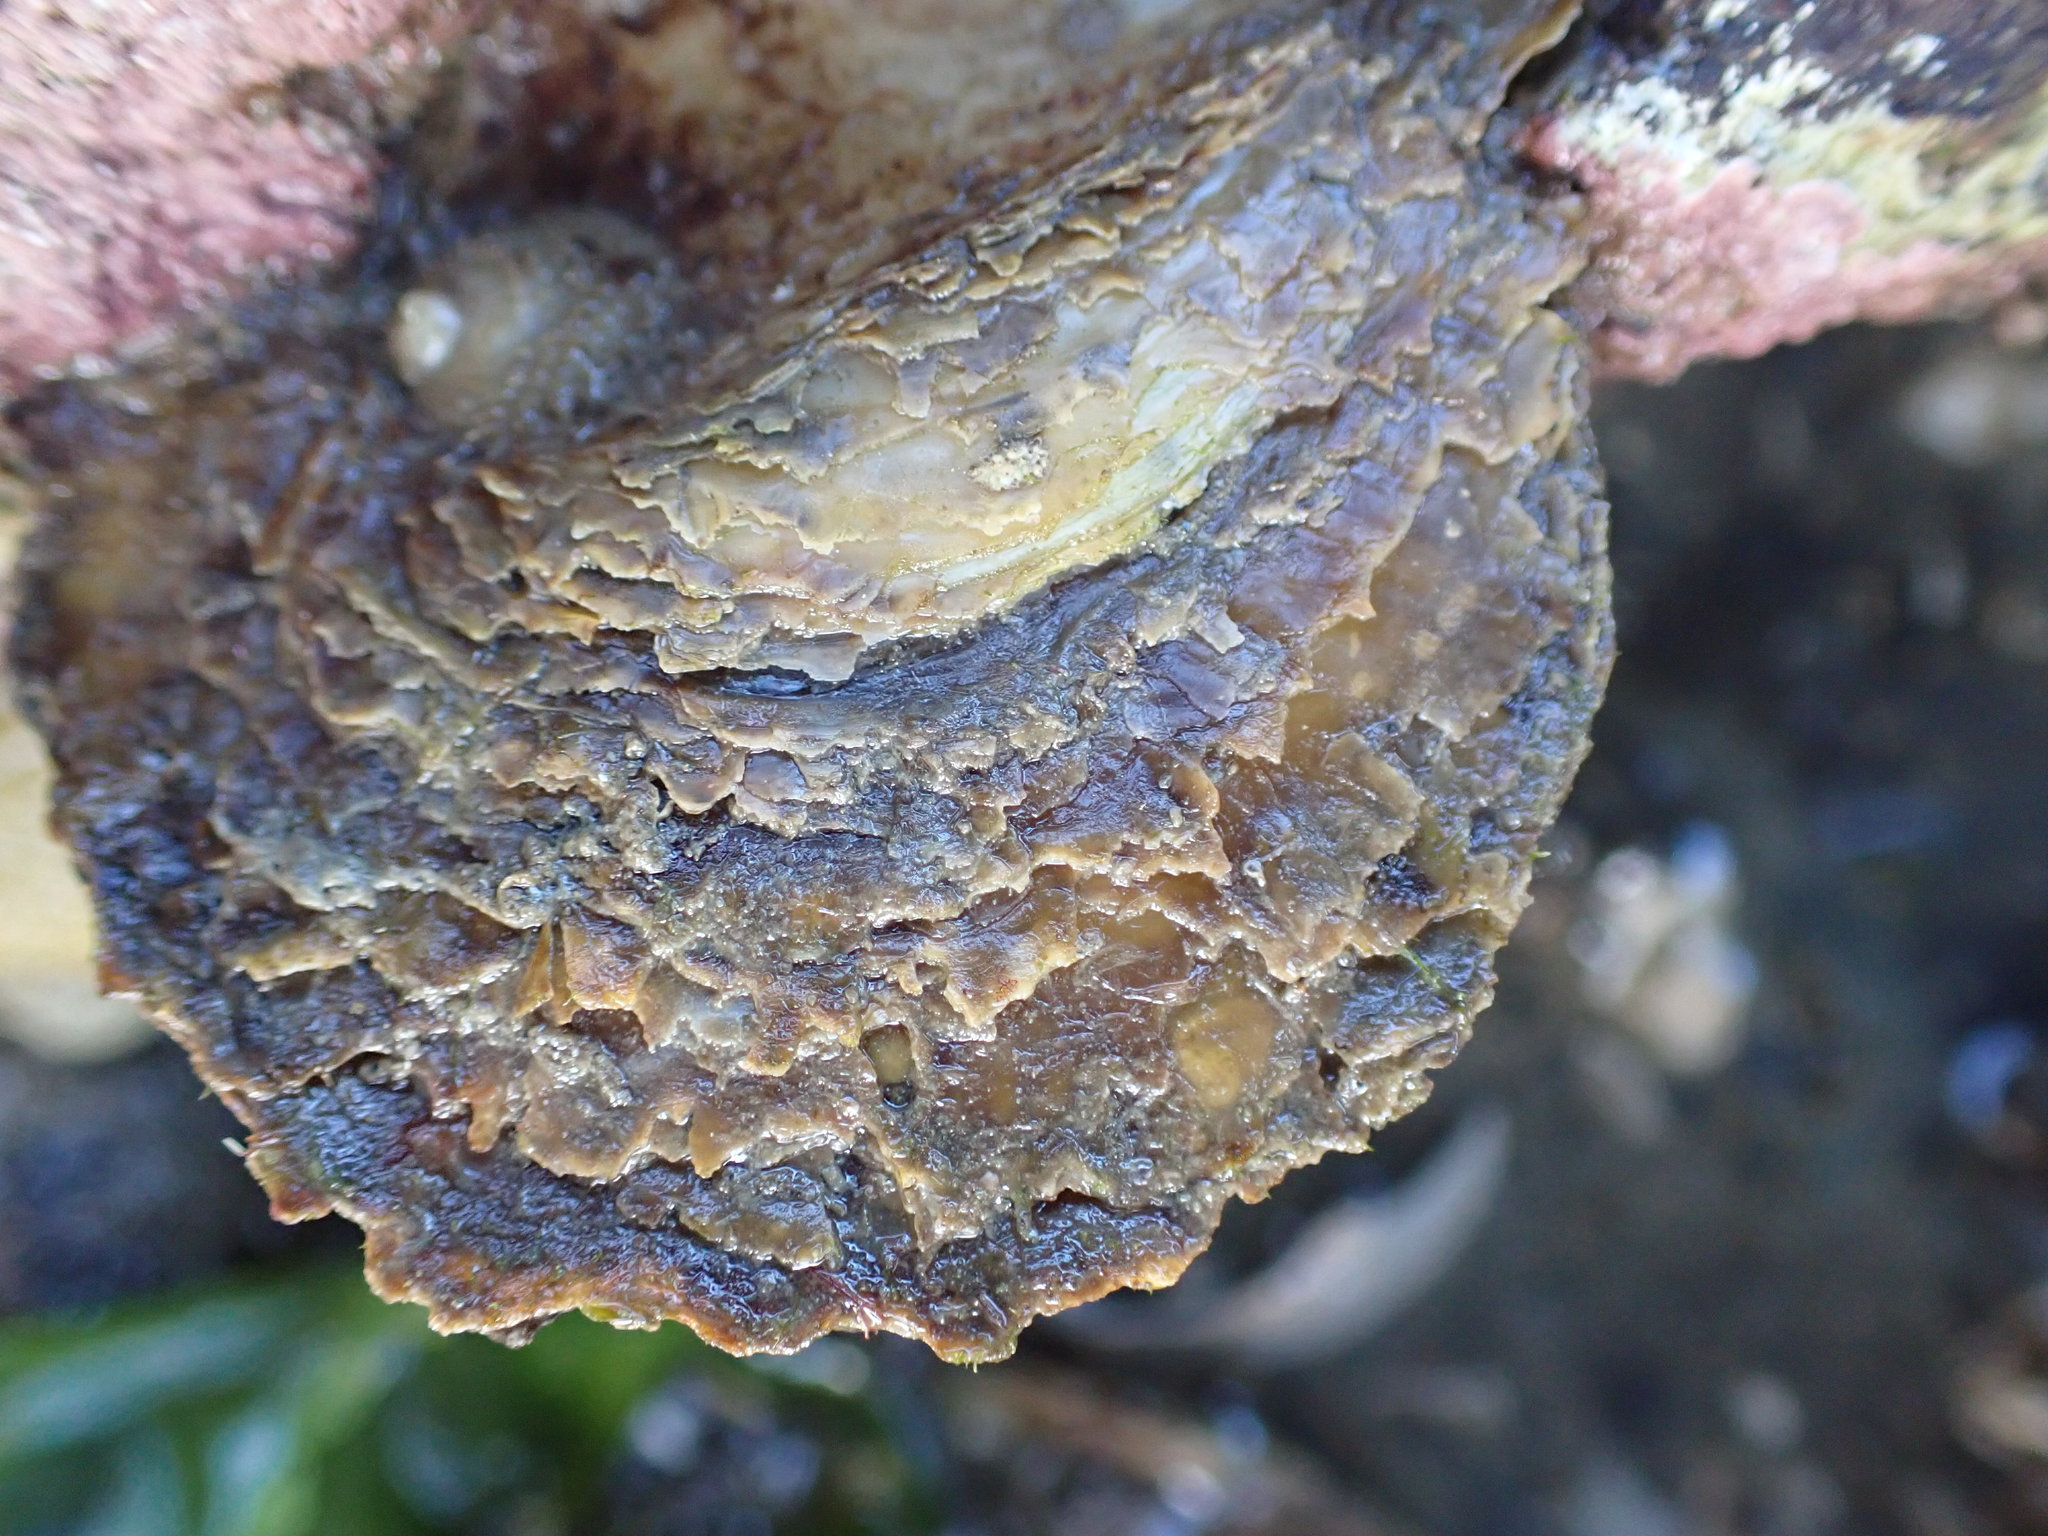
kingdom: Animalia
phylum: Mollusca
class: Bivalvia
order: Ostreida
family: Ostreidae
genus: Ostrea
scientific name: Ostrea chilensis
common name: Chilean oyster
